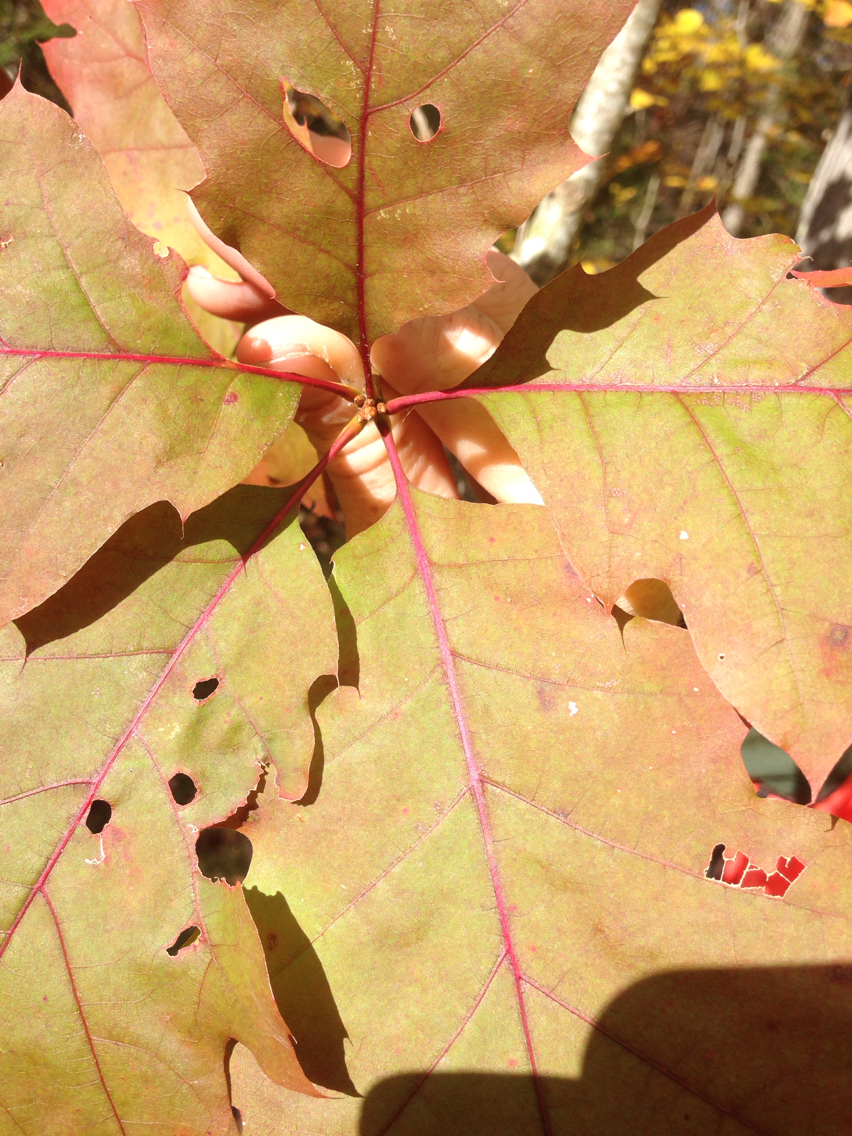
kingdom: Plantae
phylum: Tracheophyta
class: Magnoliopsida
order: Fagales
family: Fagaceae
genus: Quercus
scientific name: Quercus rubra
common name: Red oak
